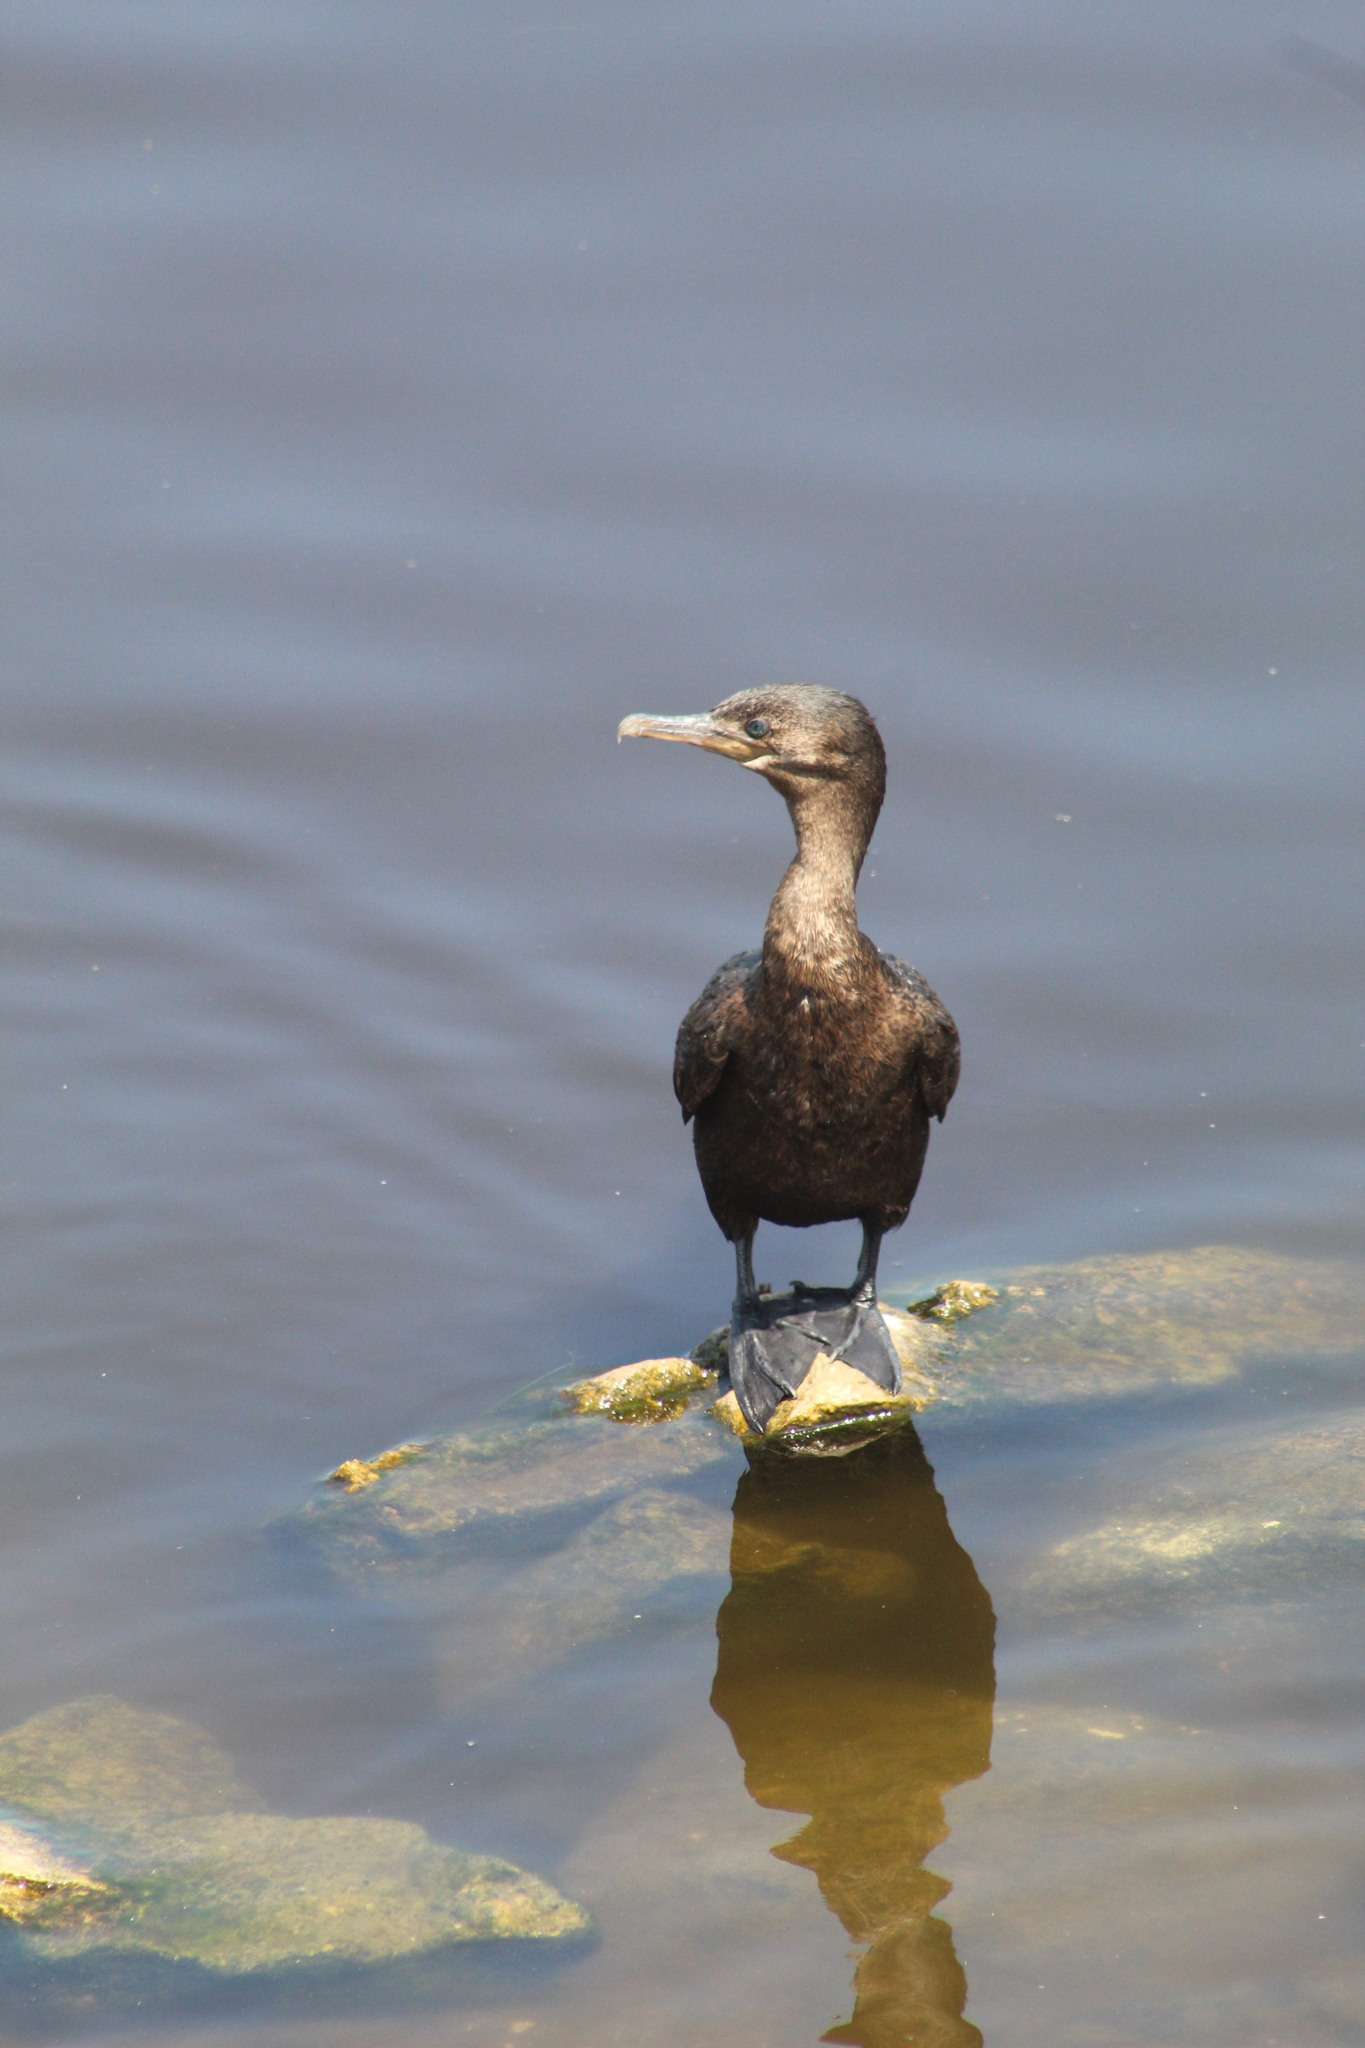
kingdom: Animalia
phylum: Chordata
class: Aves
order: Suliformes
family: Phalacrocoracidae
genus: Phalacrocorax
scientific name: Phalacrocorax brasilianus
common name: Neotropic cormorant
